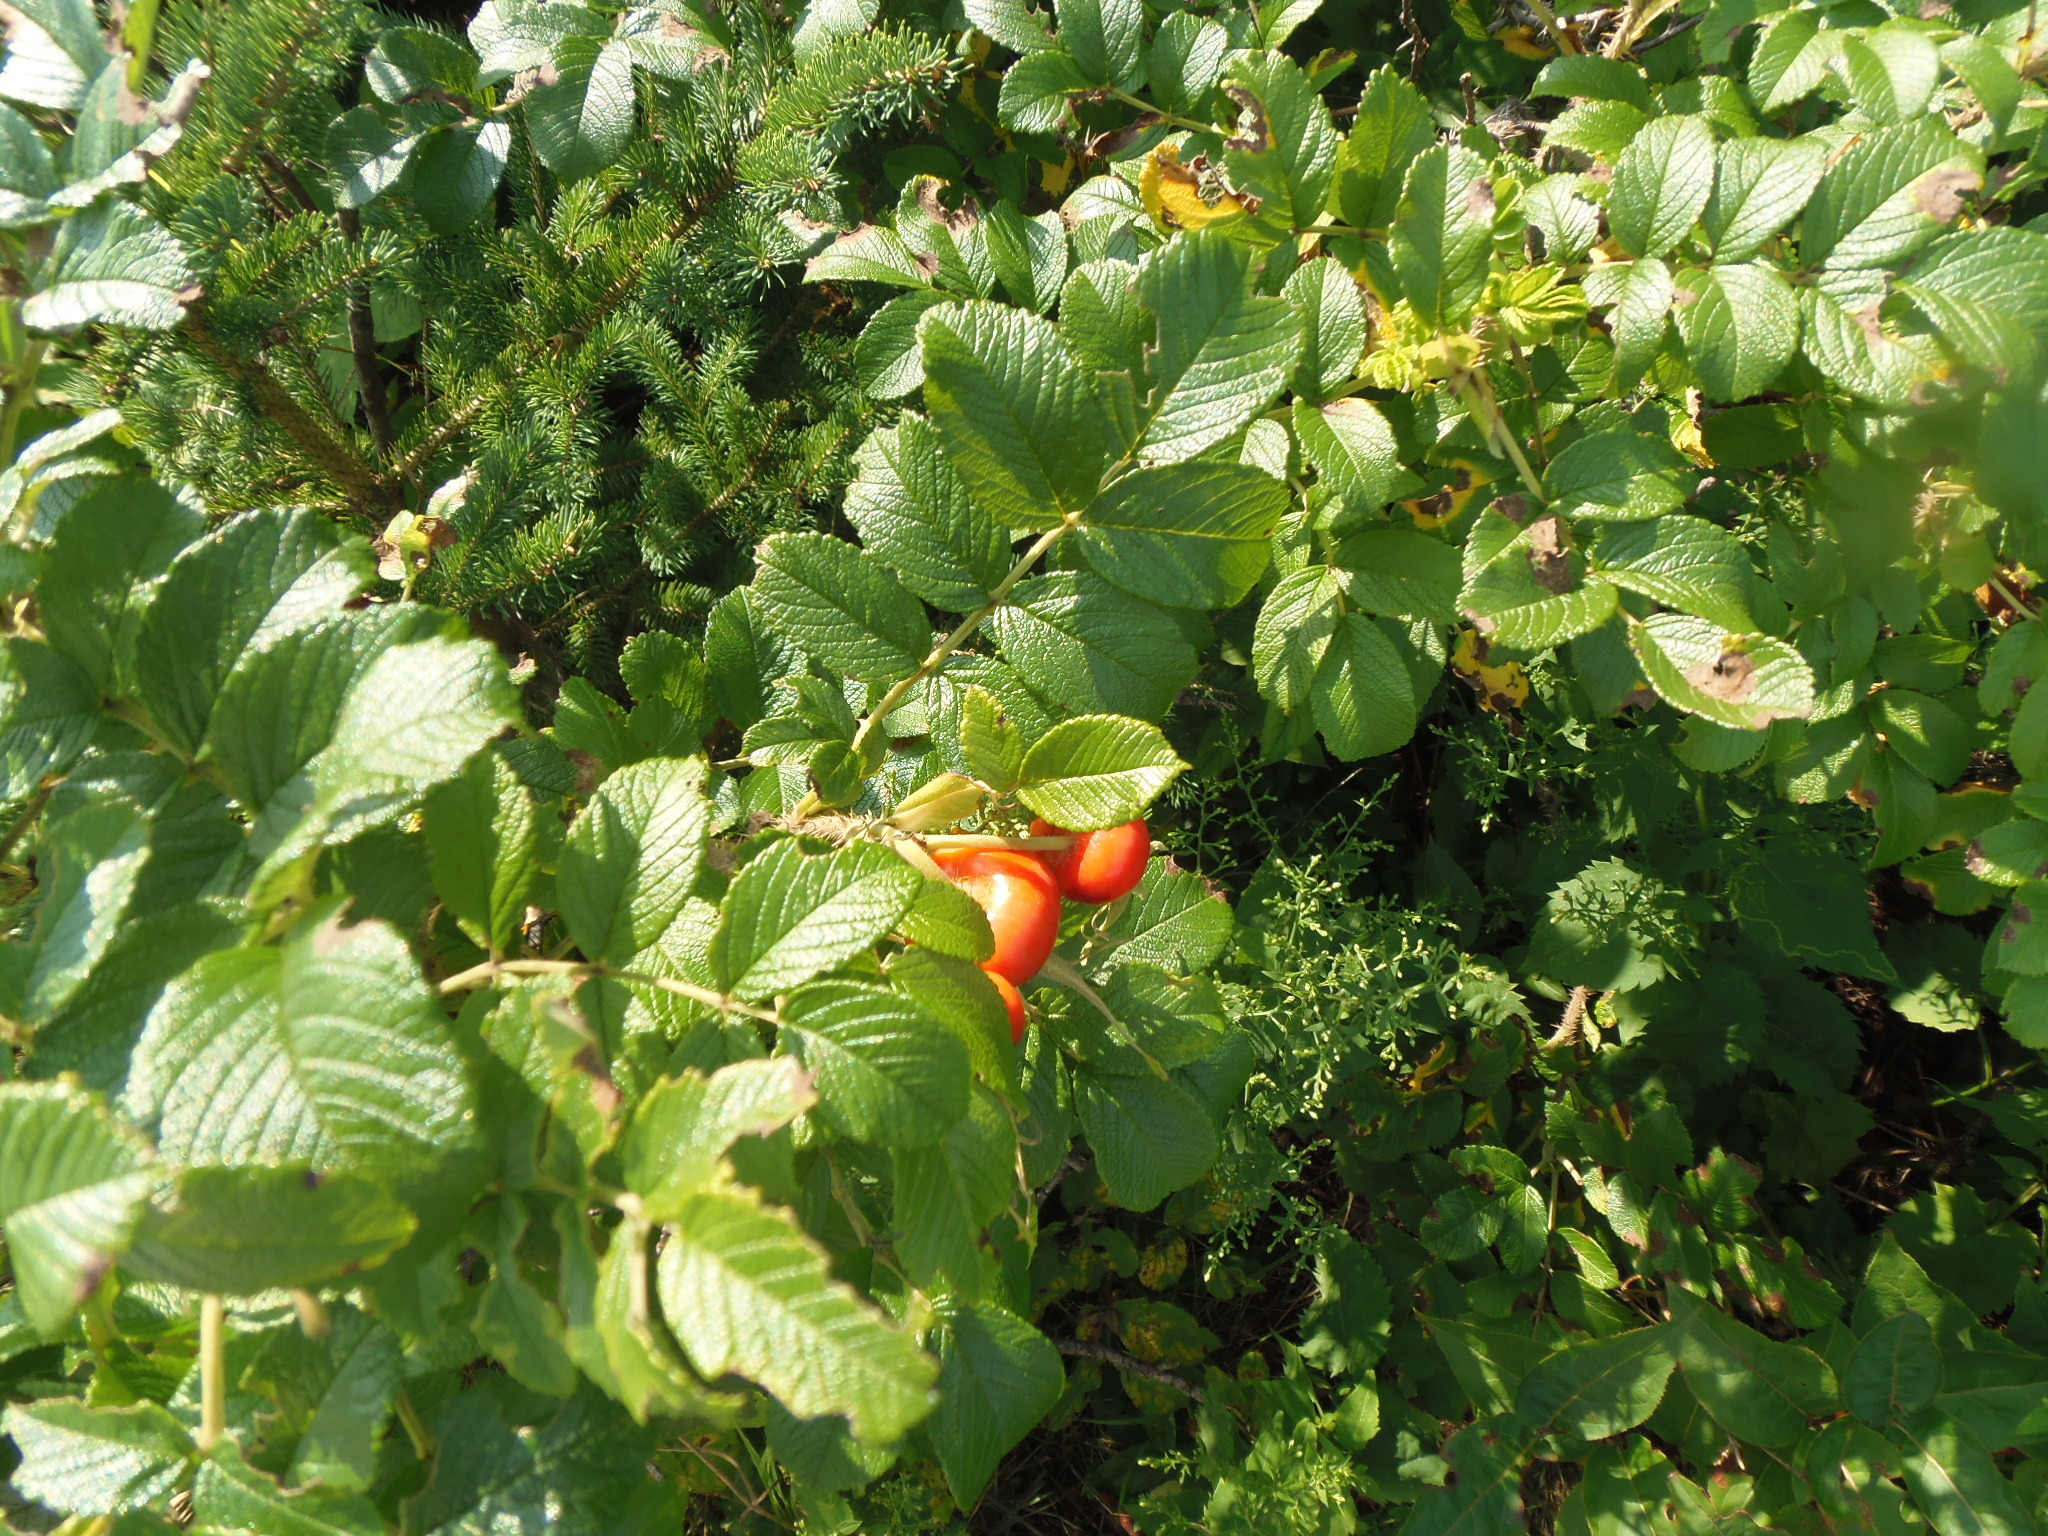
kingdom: Plantae
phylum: Tracheophyta
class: Magnoliopsida
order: Rosales
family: Rosaceae
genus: Rosa
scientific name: Rosa rugosa
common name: Japanese rose
